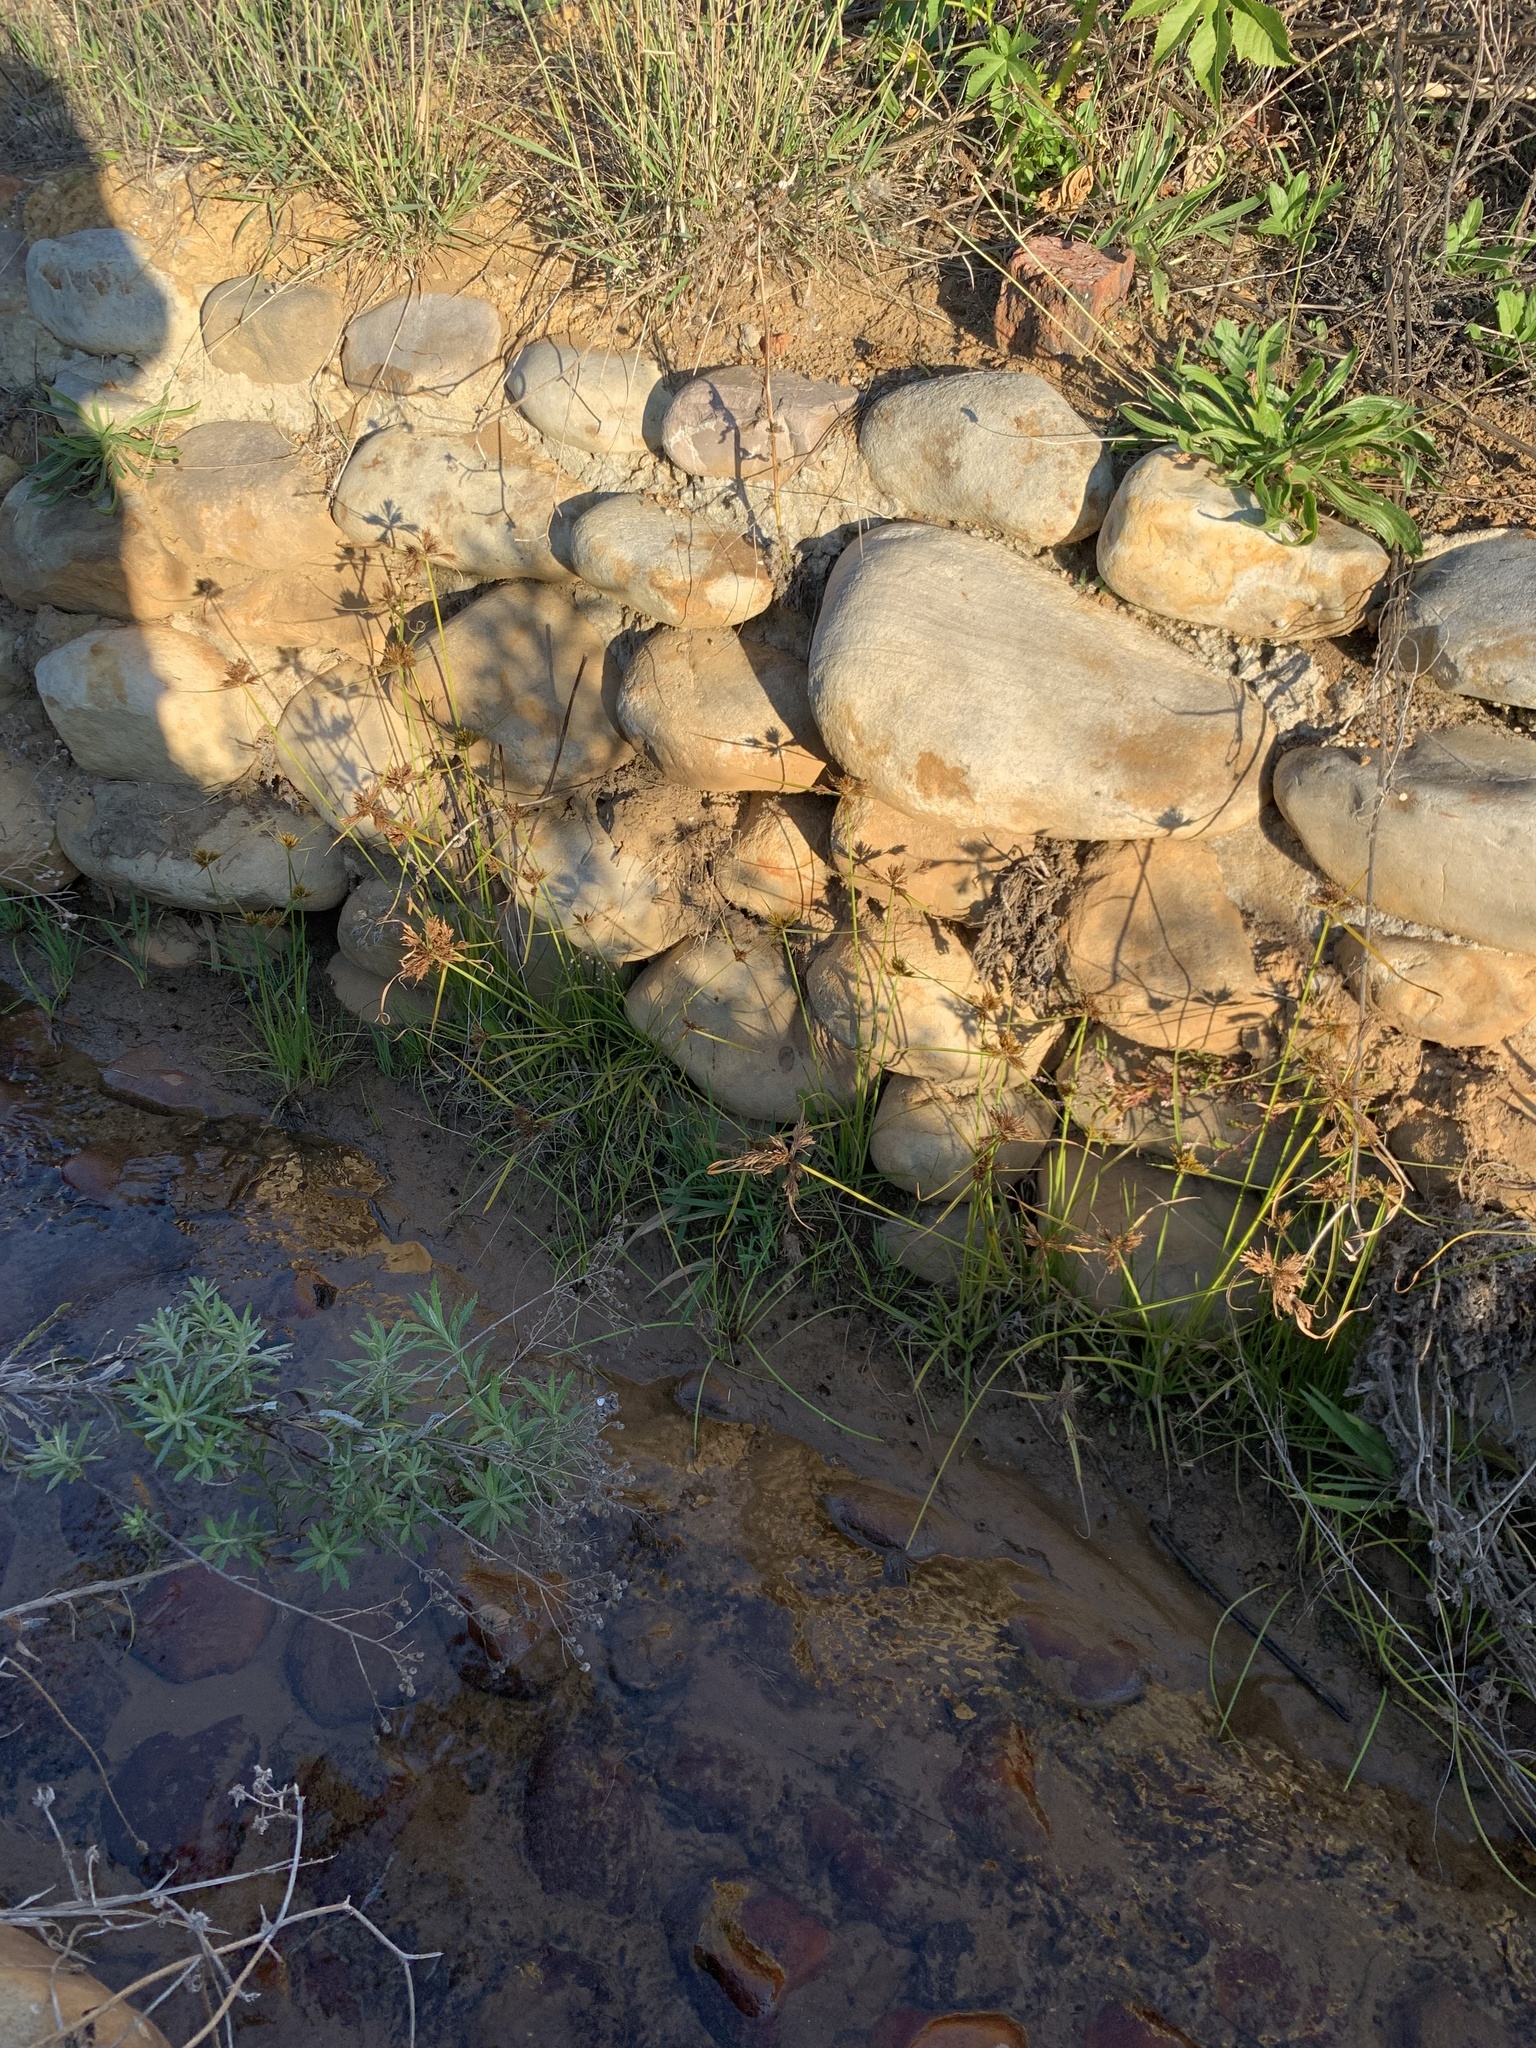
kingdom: Plantae
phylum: Tracheophyta
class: Liliopsida
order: Poales
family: Cyperaceae
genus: Cyperus
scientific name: Cyperus polystachyos
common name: Bunchy flat sedge
